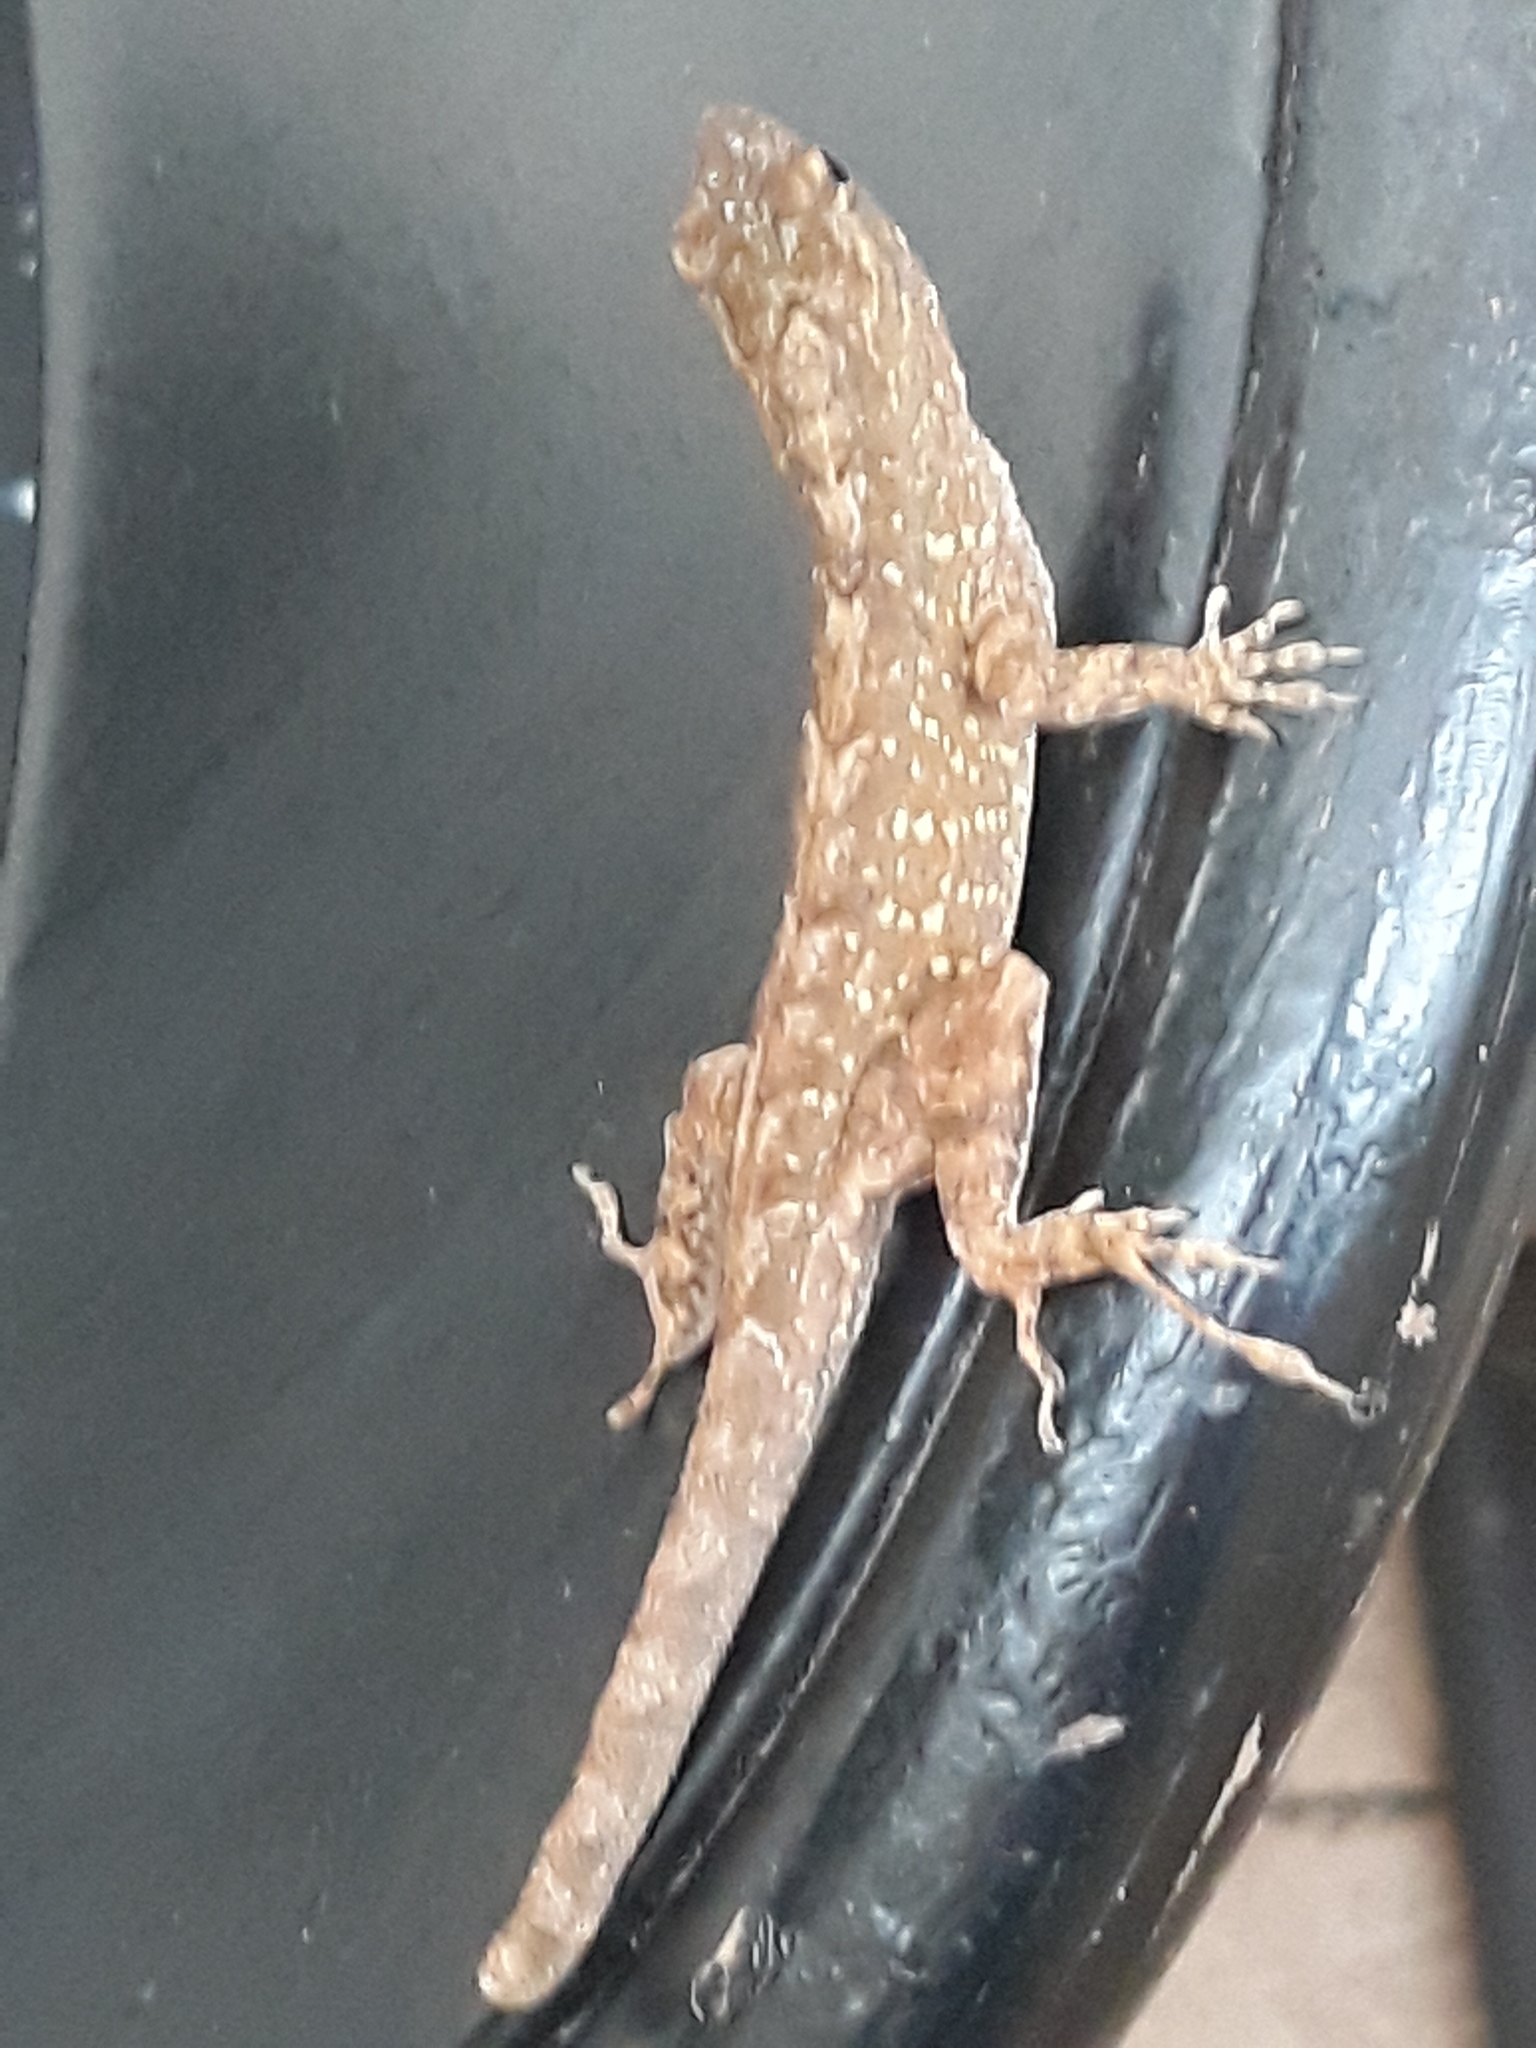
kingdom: Animalia
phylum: Chordata
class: Squamata
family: Dactyloidae
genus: Anolis
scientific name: Anolis sagrei
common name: Brown anole
